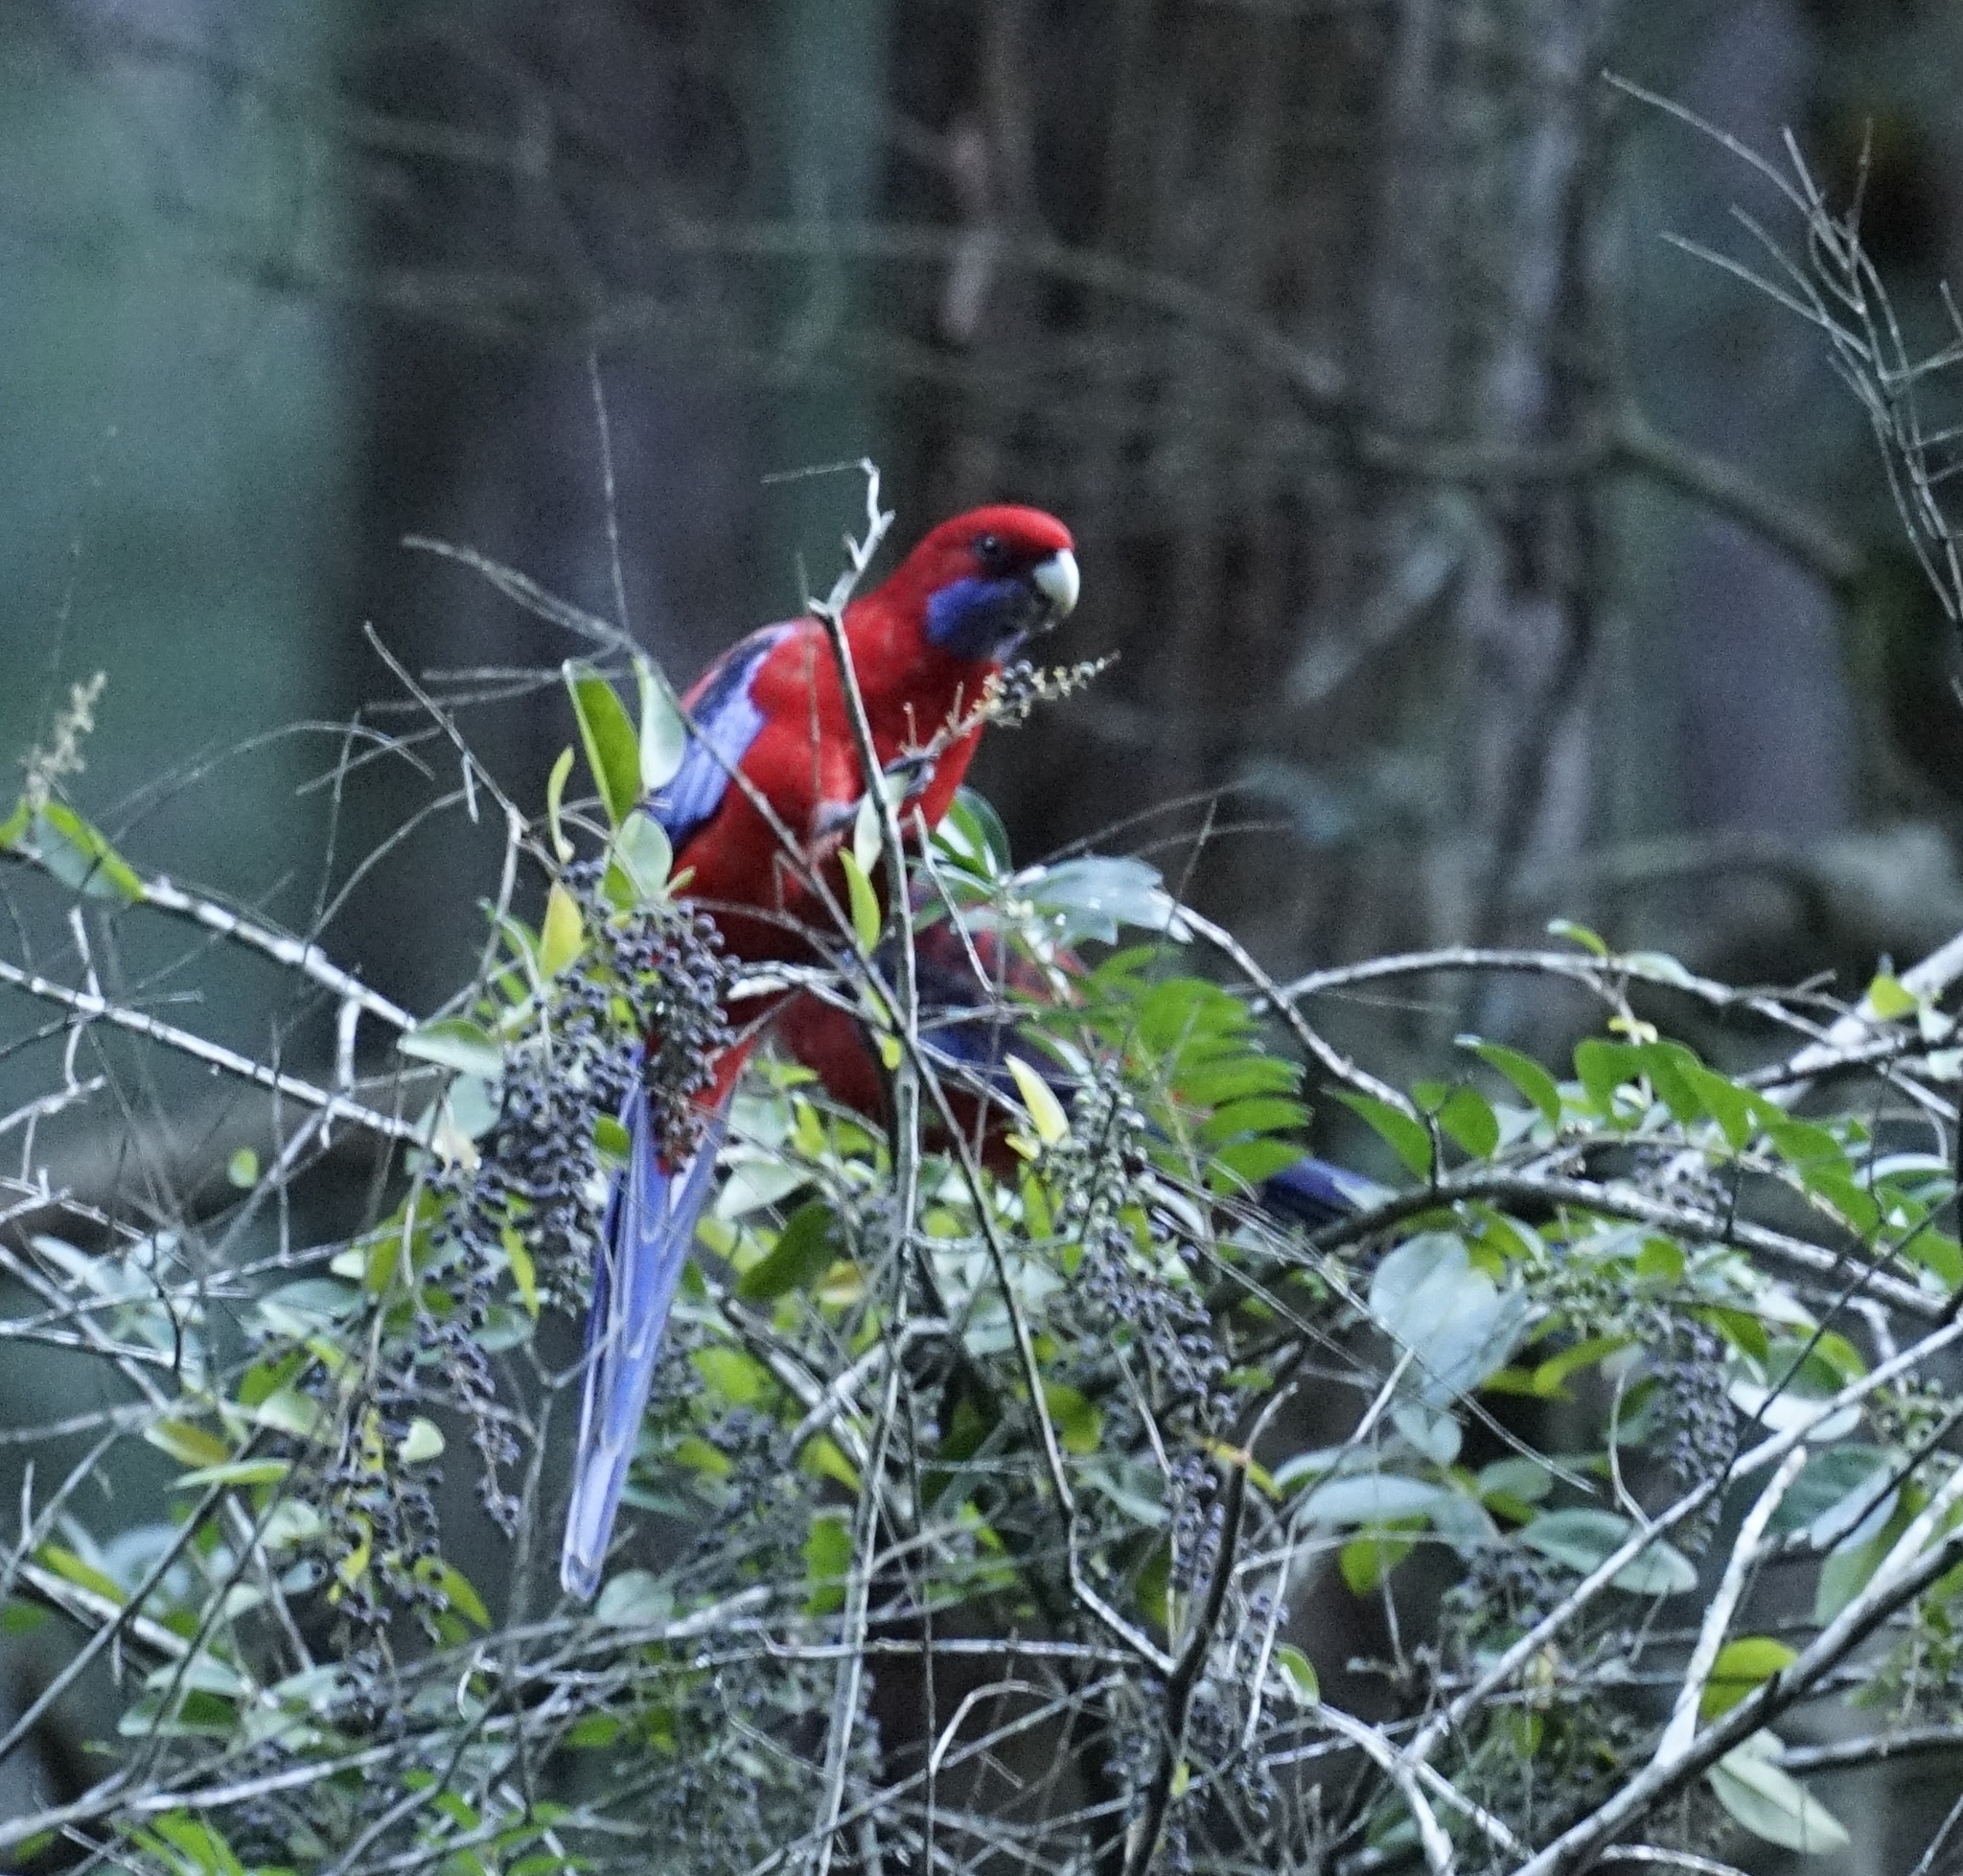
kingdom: Animalia
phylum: Chordata
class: Aves
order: Psittaciformes
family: Psittacidae
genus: Platycercus
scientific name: Platycercus elegans
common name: Crimson rosella
